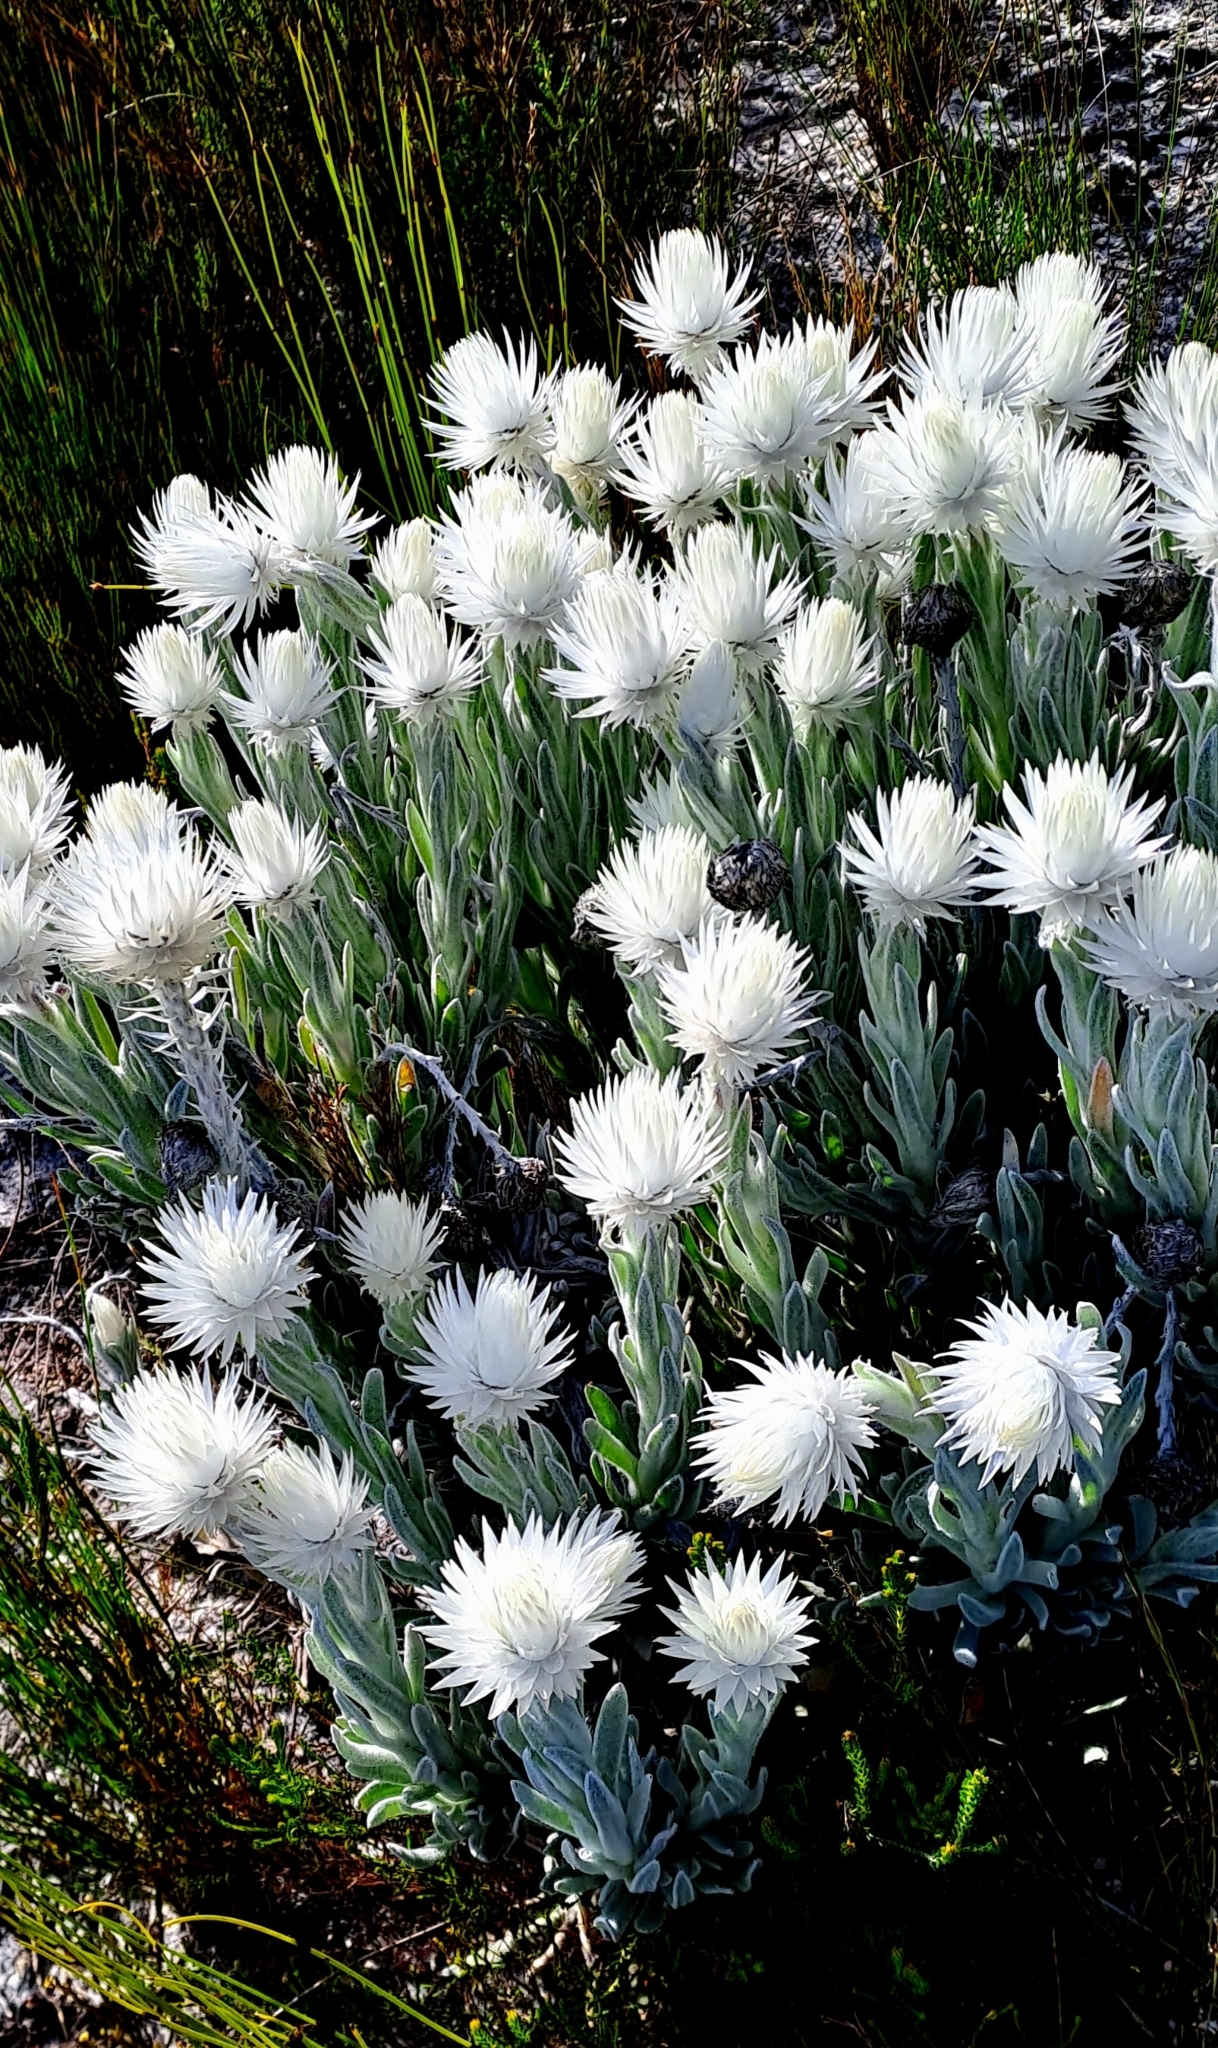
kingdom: Plantae
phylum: Tracheophyta
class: Magnoliopsida
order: Asterales
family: Asteraceae
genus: Syncarpha
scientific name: Syncarpha vestita
